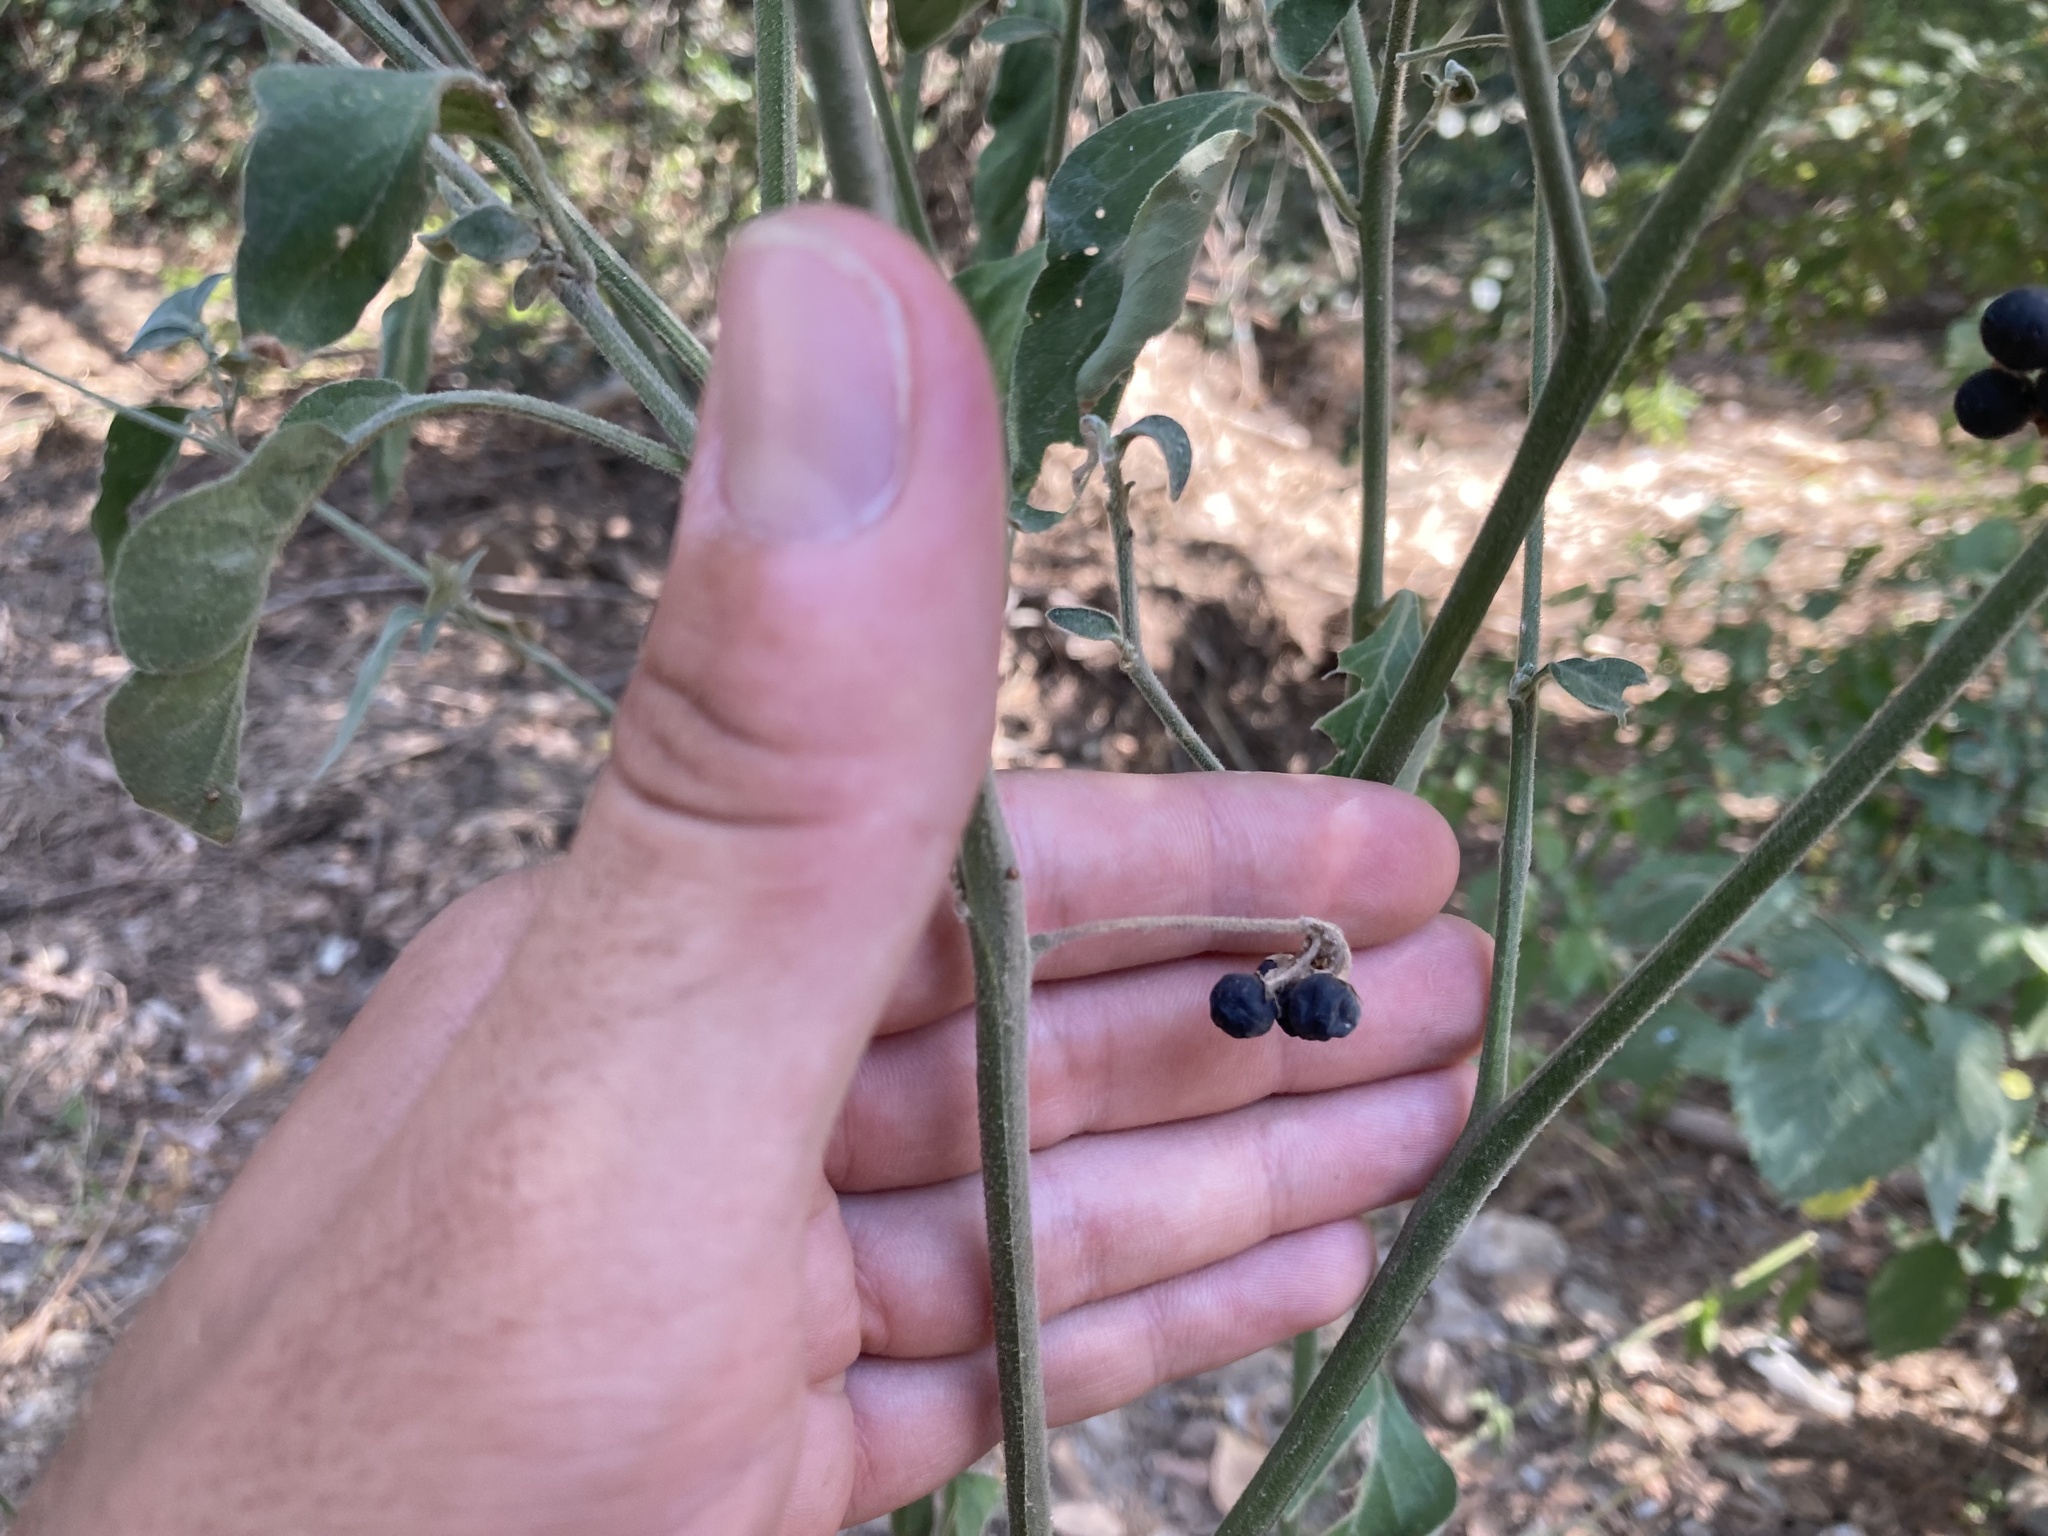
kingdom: Plantae
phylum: Tracheophyta
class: Magnoliopsida
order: Solanales
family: Solanaceae
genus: Solanum
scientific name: Solanum chenopodioides
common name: Tall nightshade
